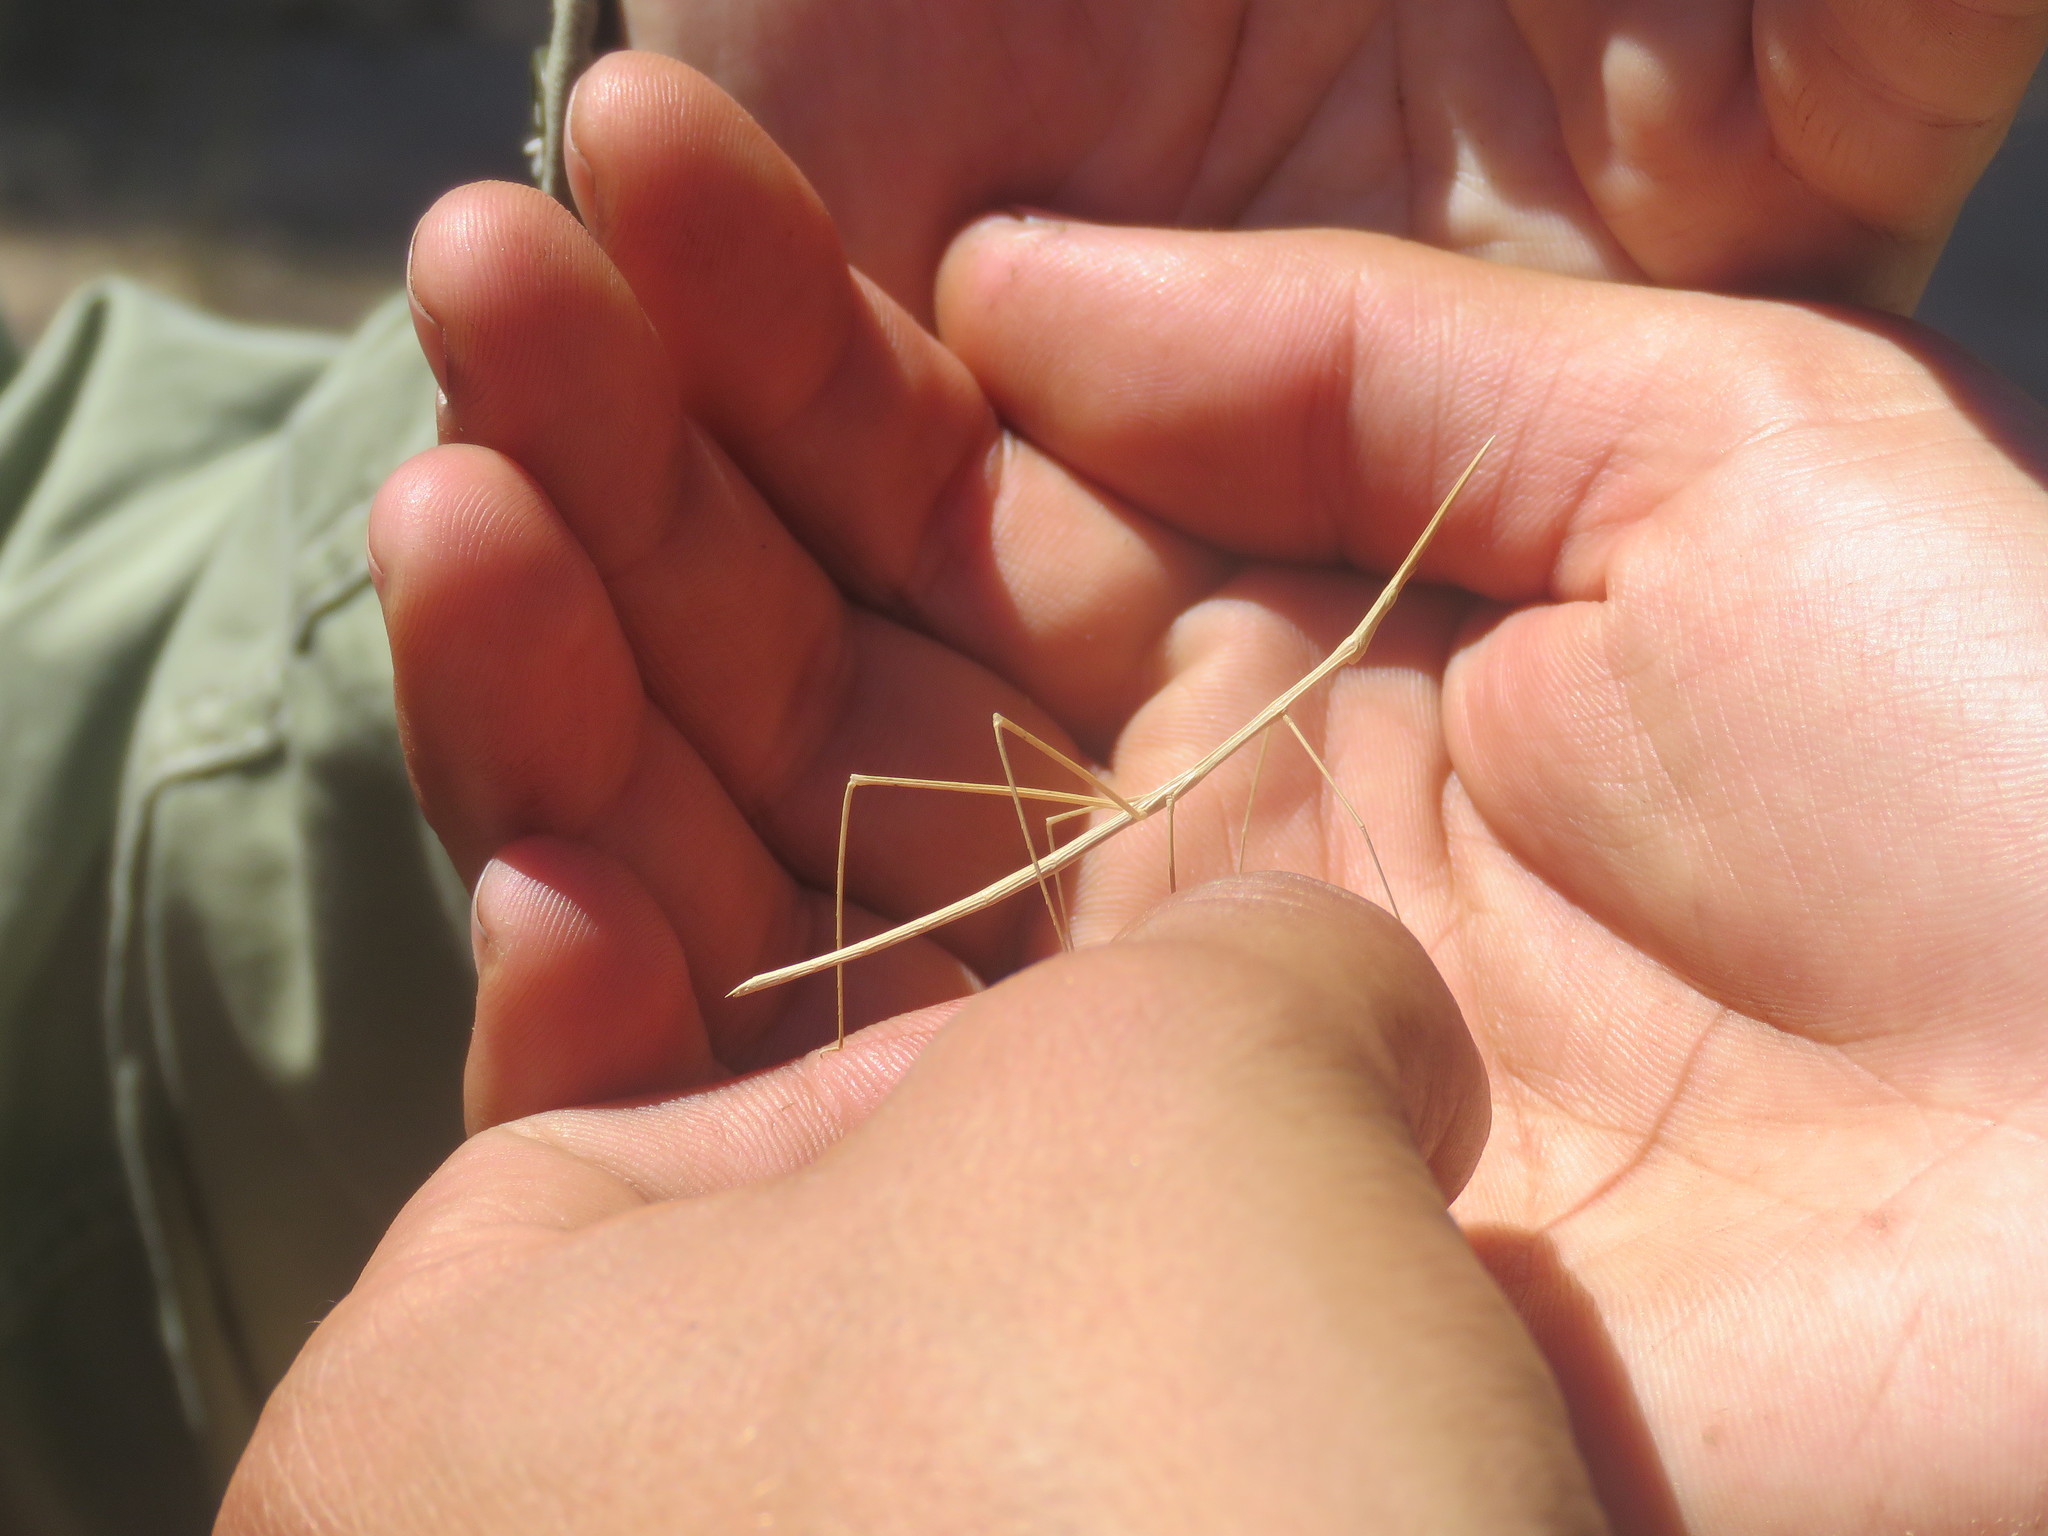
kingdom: Animalia
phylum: Arthropoda
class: Insecta
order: Orthoptera
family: Proscopiidae
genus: Carphoproscopia
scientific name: Carphoproscopia lancea
